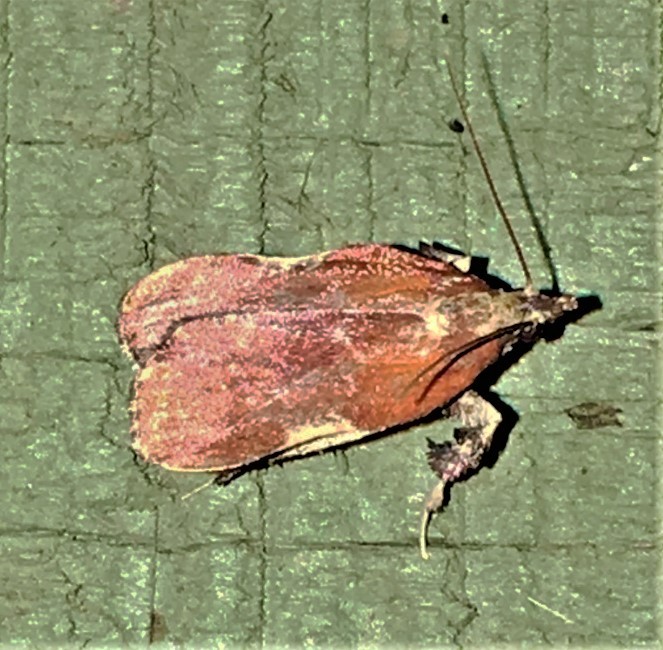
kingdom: Animalia
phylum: Arthropoda
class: Insecta
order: Lepidoptera
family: Pyralidae
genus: Galasa
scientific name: Galasa nigrinodis
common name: Boxwood leaftier moth
